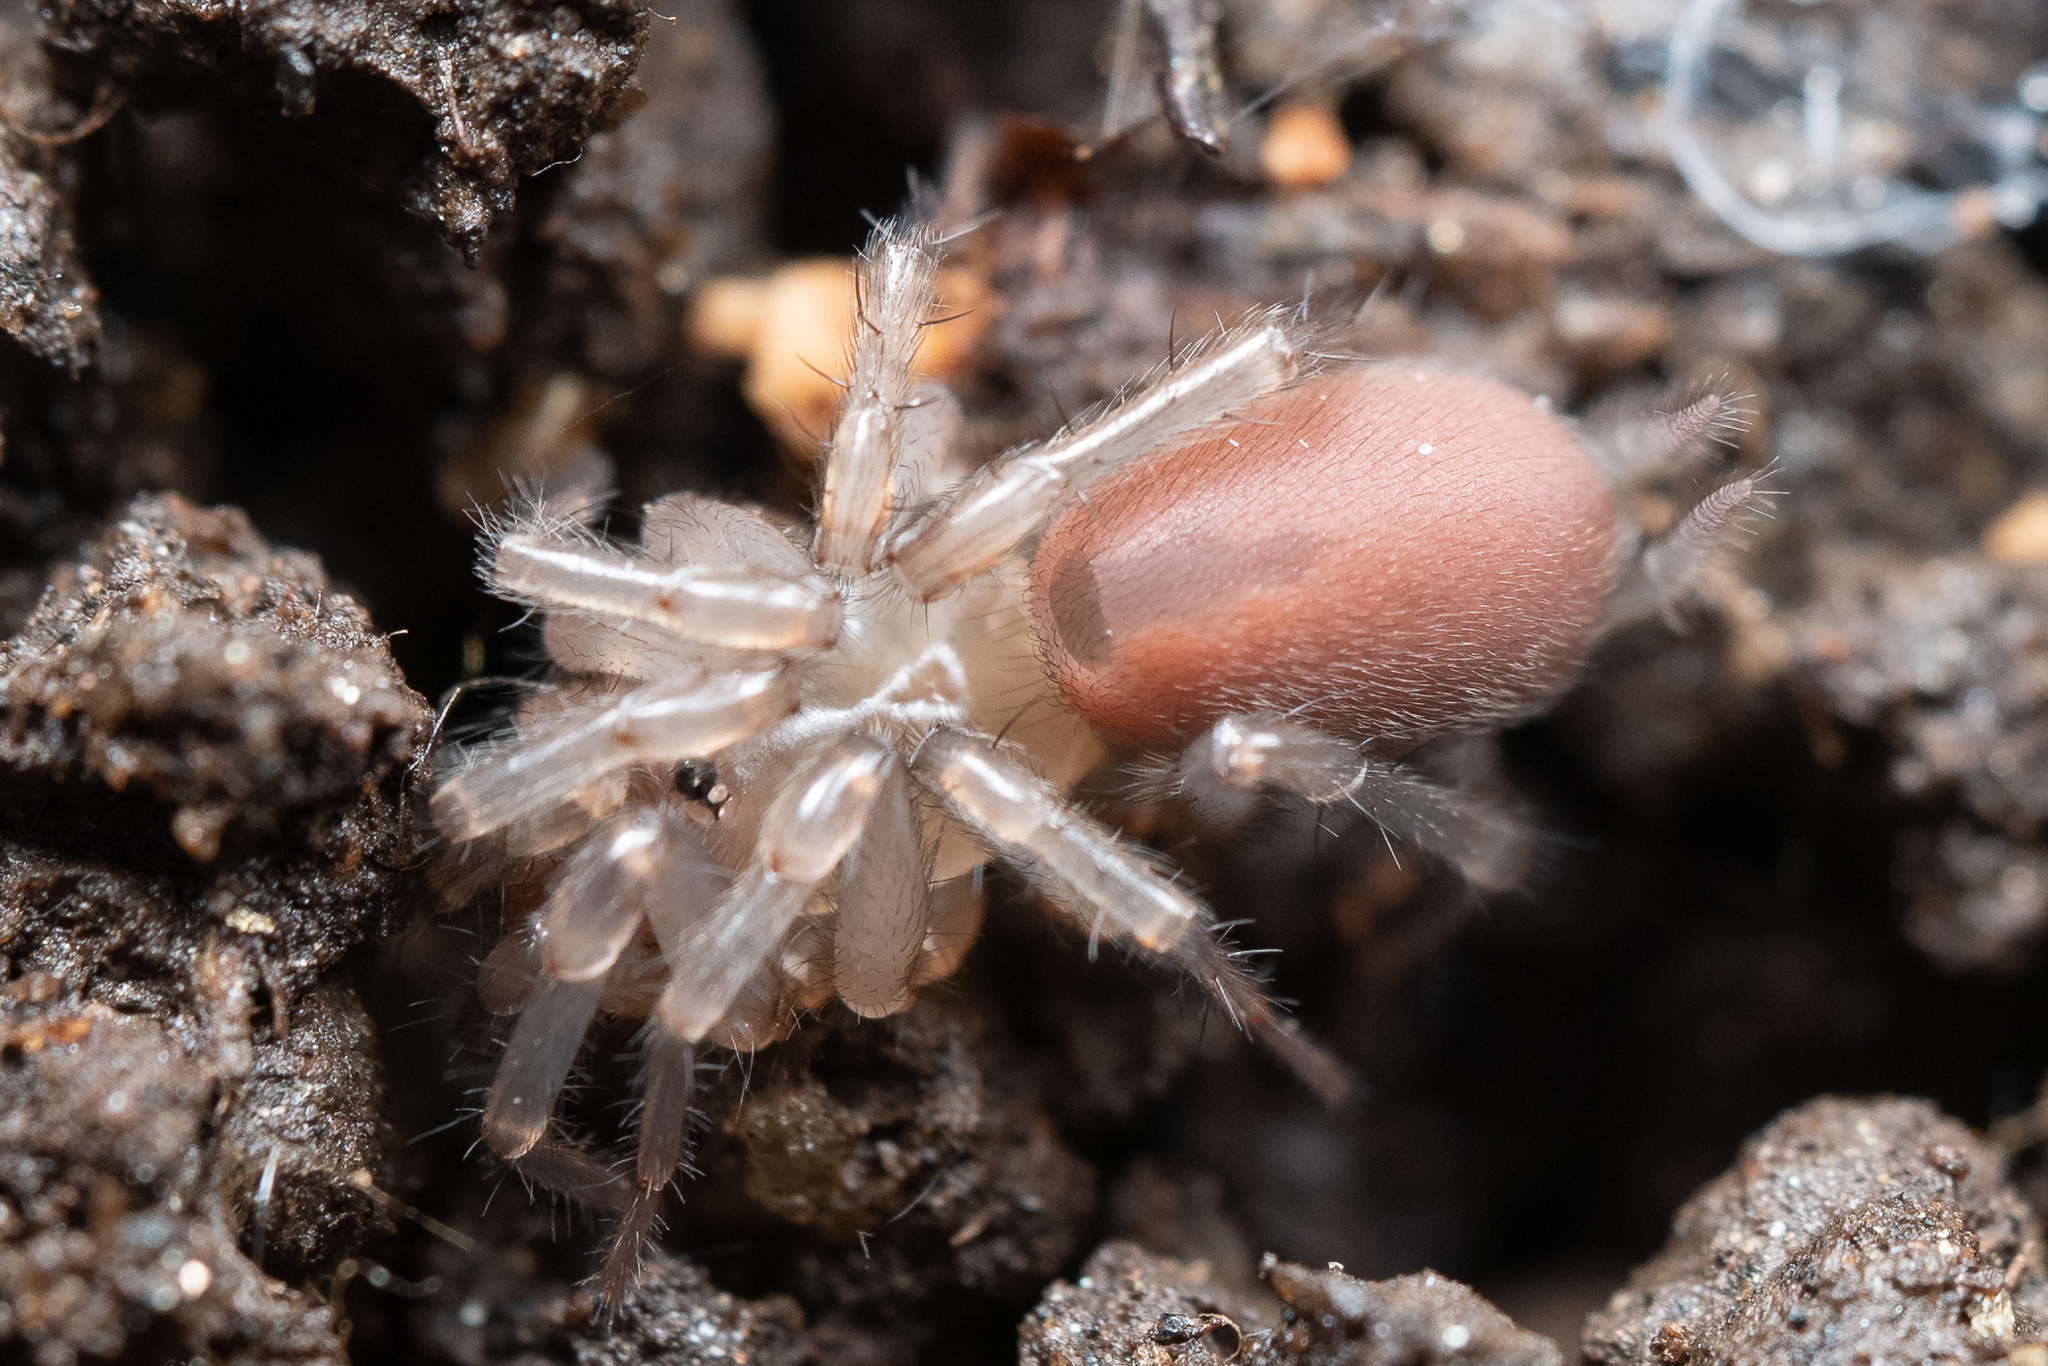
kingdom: Animalia
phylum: Arthropoda
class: Arachnida
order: Araneae
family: Megahexuridae
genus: Megahexura
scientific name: Megahexura fulva
